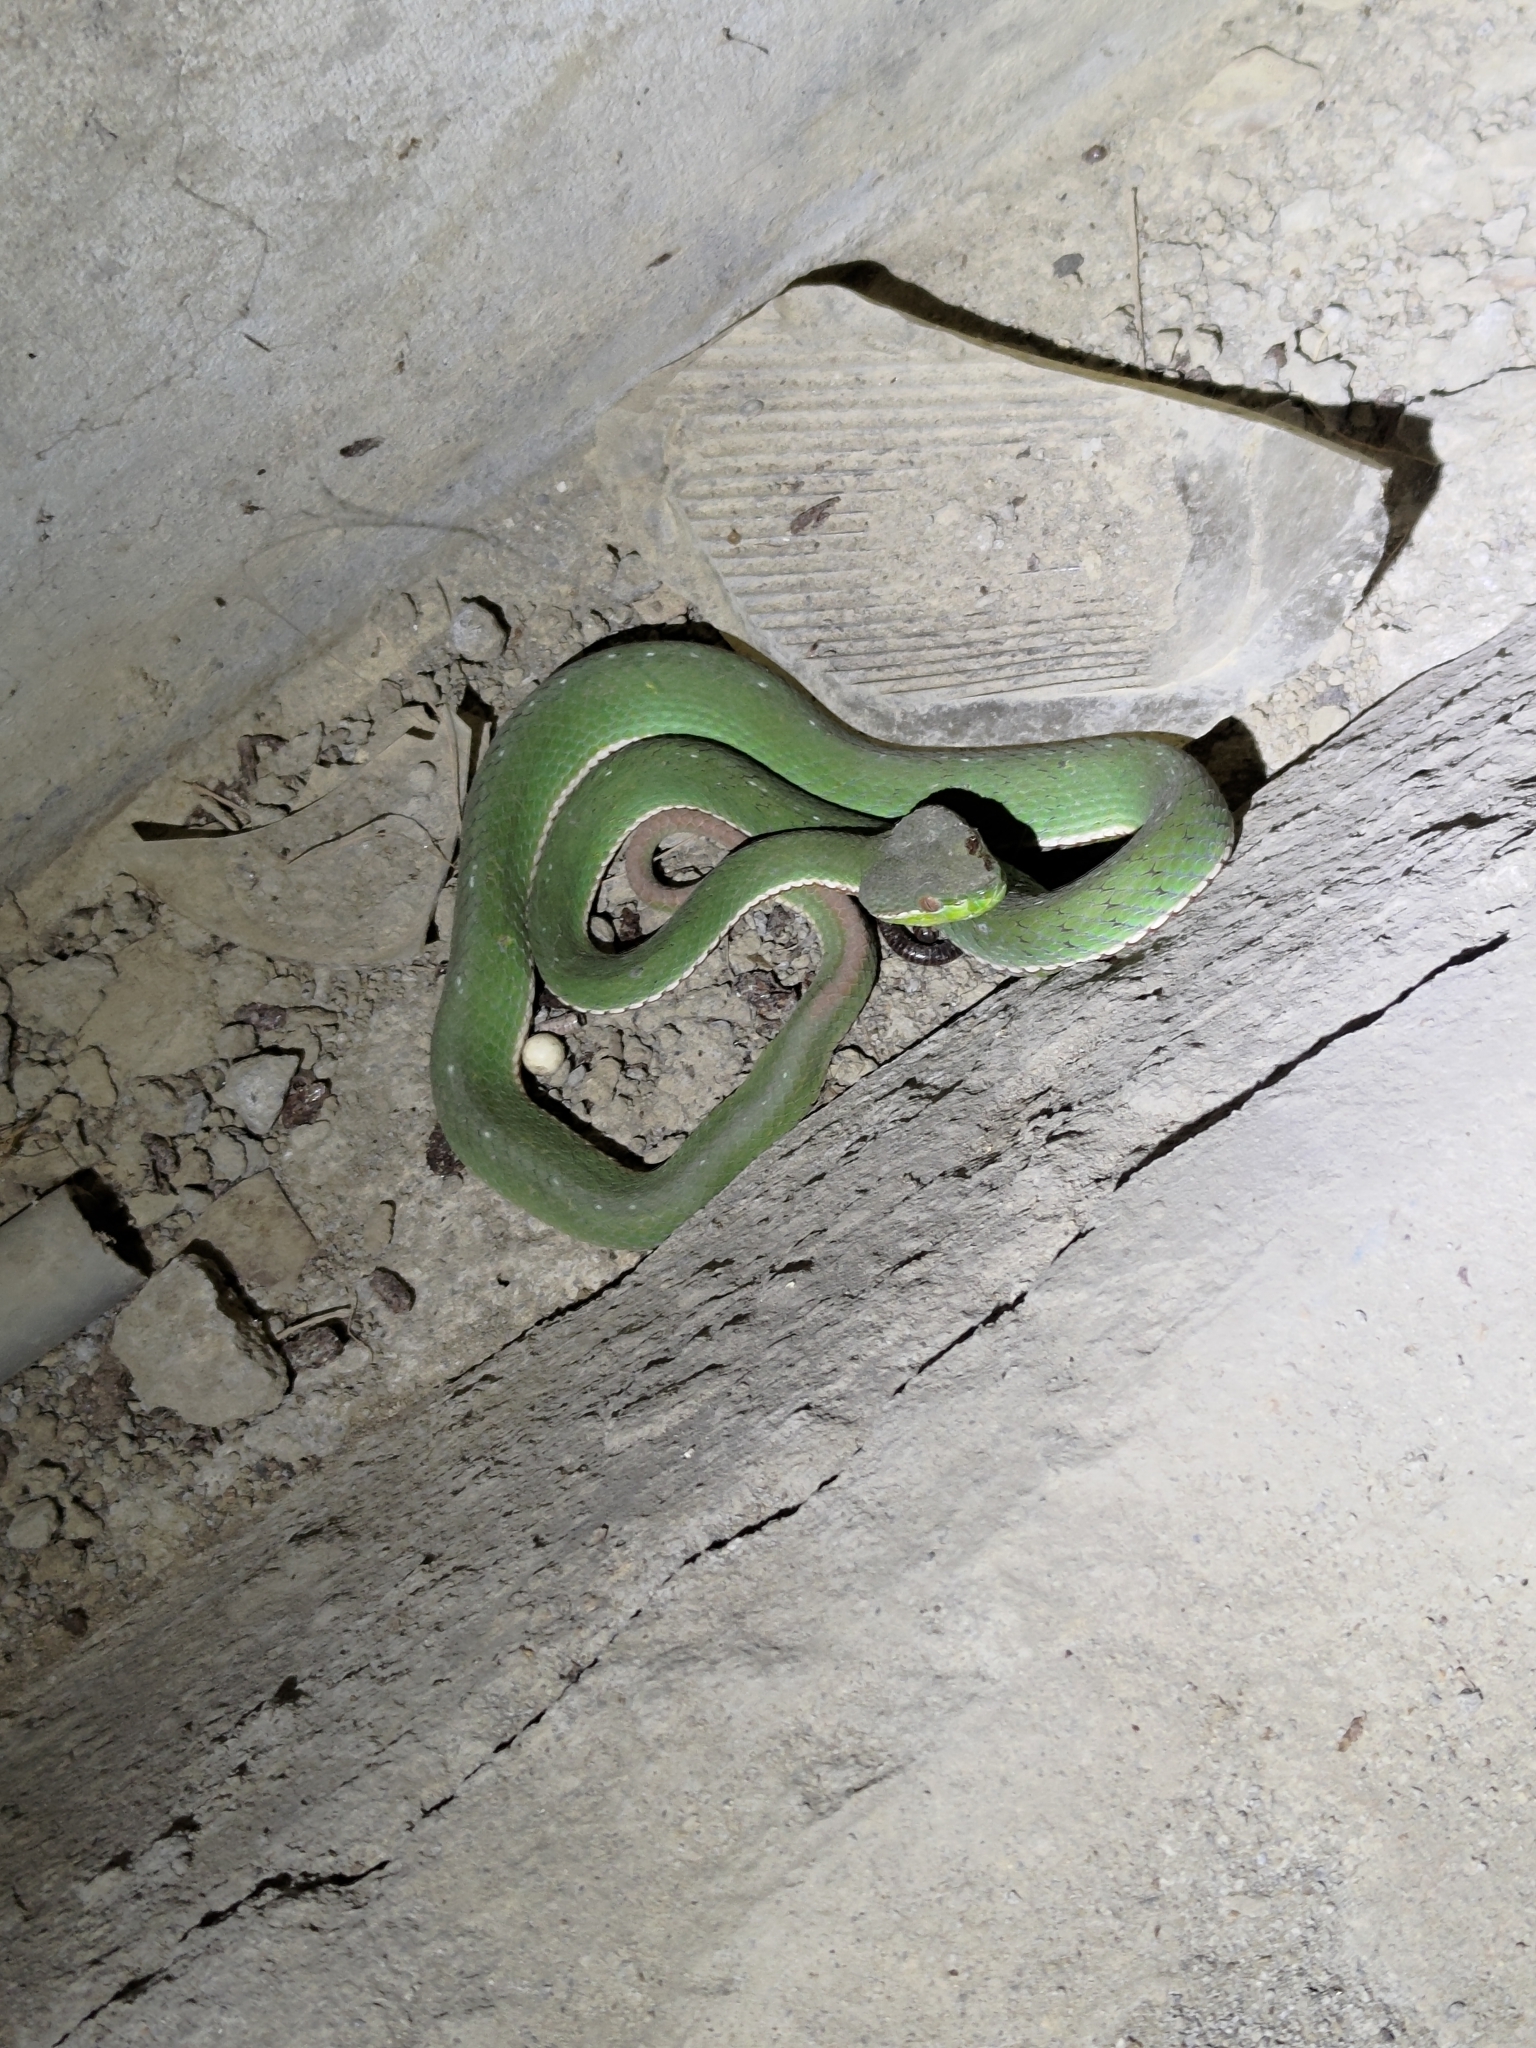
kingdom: Animalia
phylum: Chordata
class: Squamata
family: Viperidae
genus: Trimeresurus
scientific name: Trimeresurus stejnegeri
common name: Chen’s bamboo pit viper
